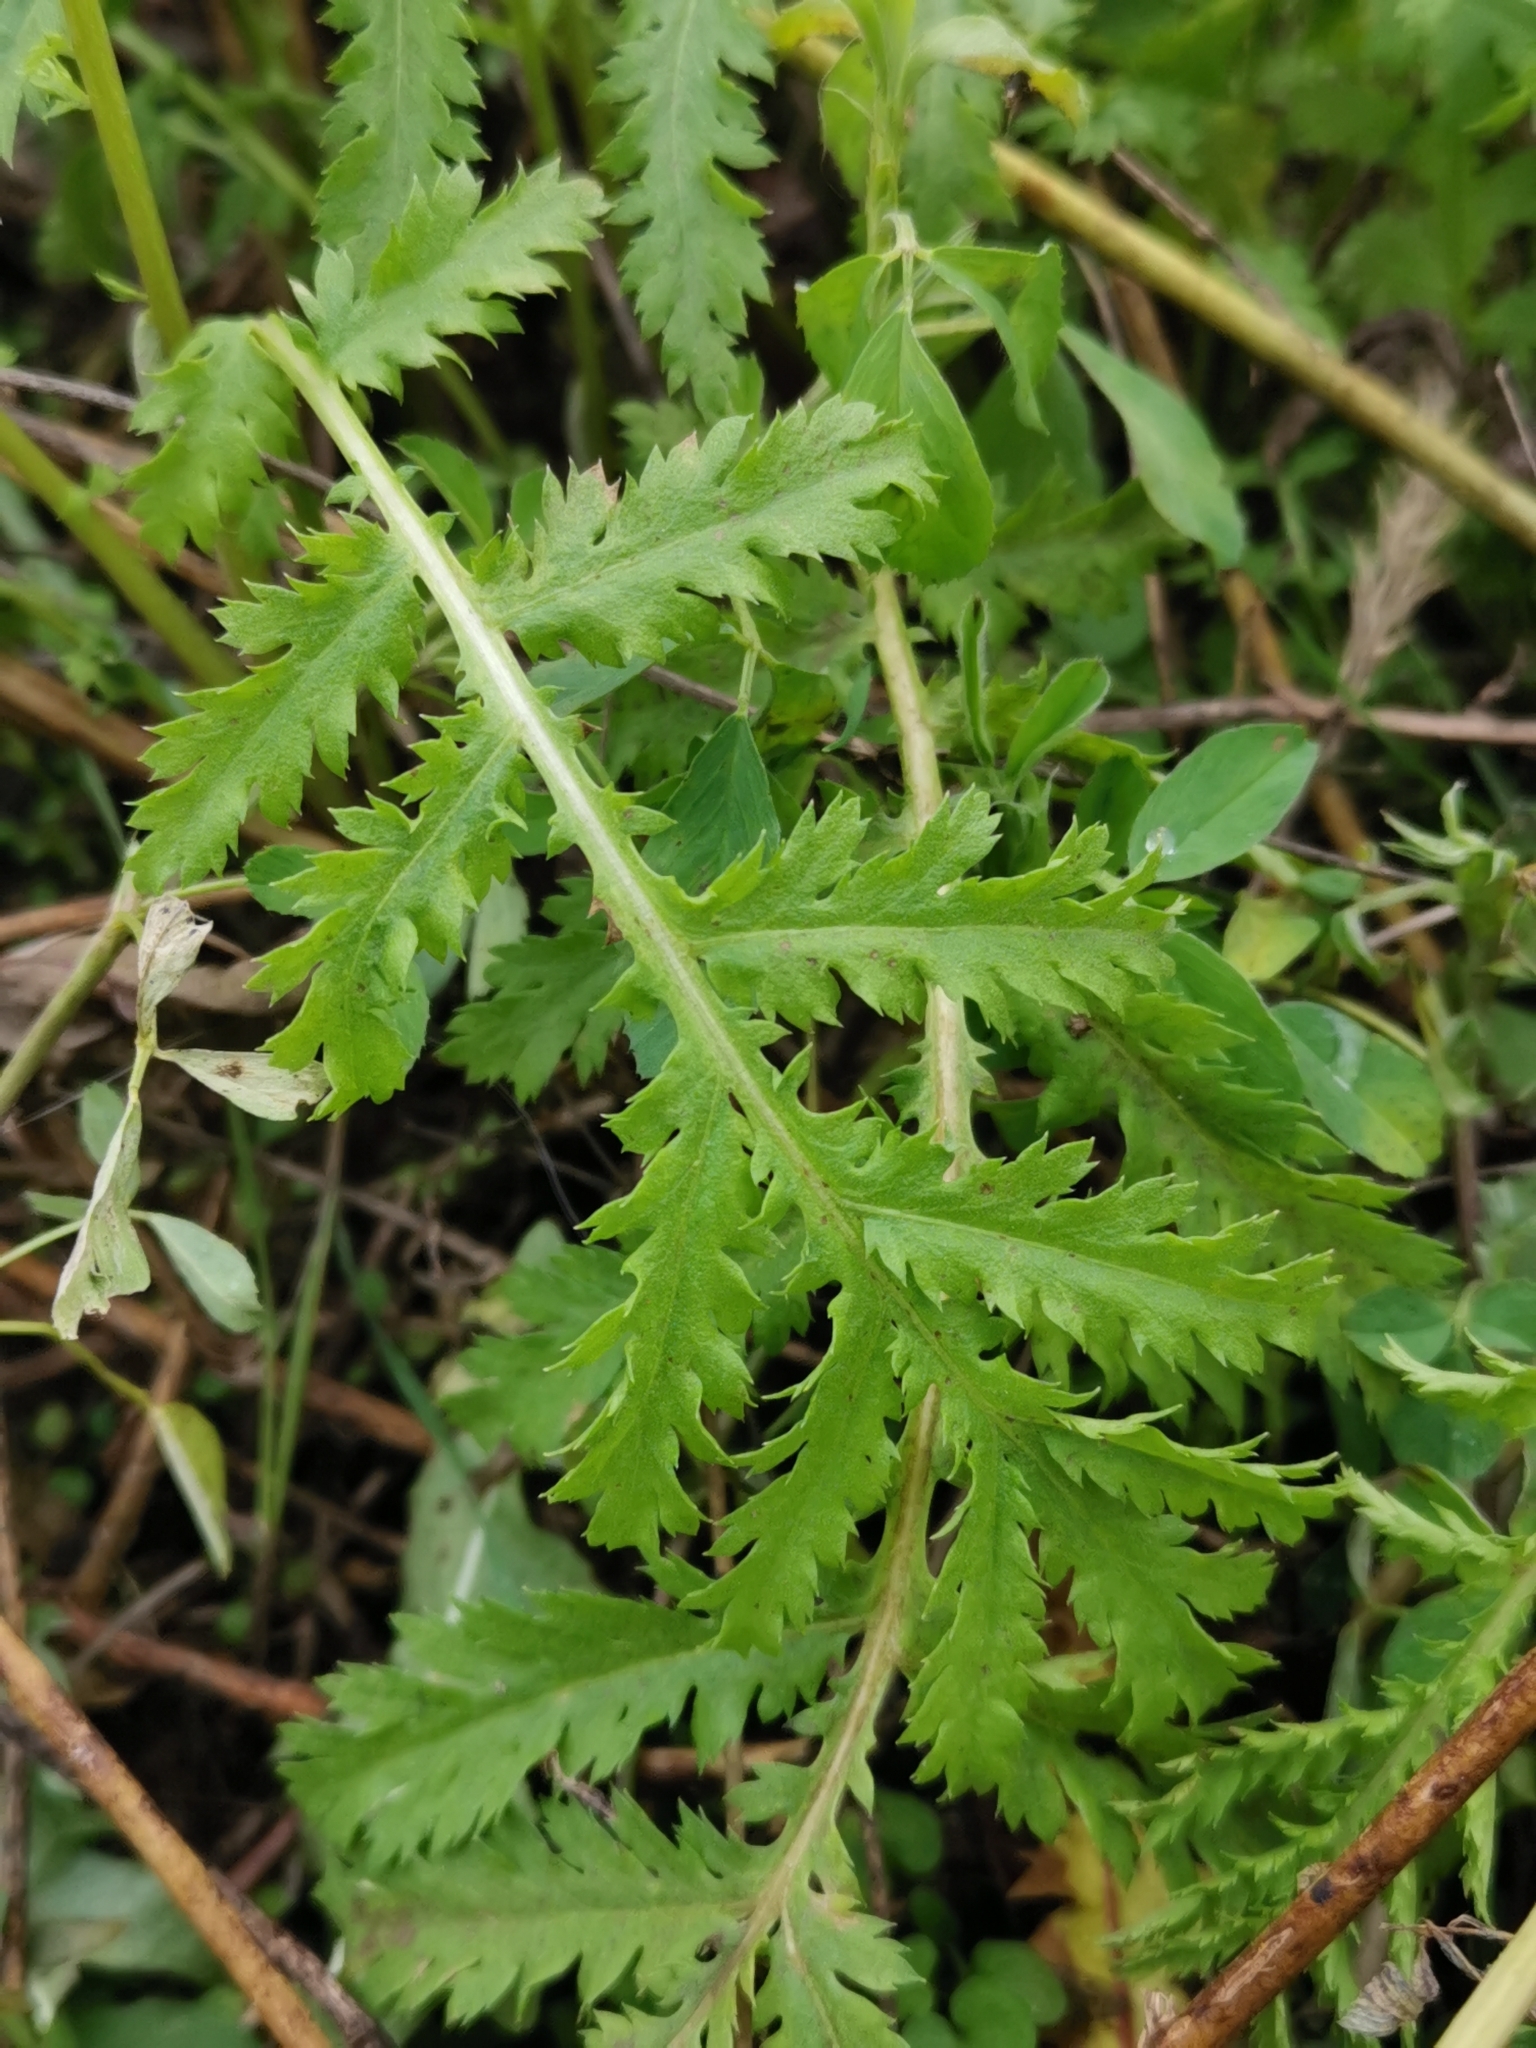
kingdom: Plantae
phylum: Tracheophyta
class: Magnoliopsida
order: Asterales
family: Asteraceae
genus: Tanacetum
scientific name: Tanacetum vulgare
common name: Common tansy
